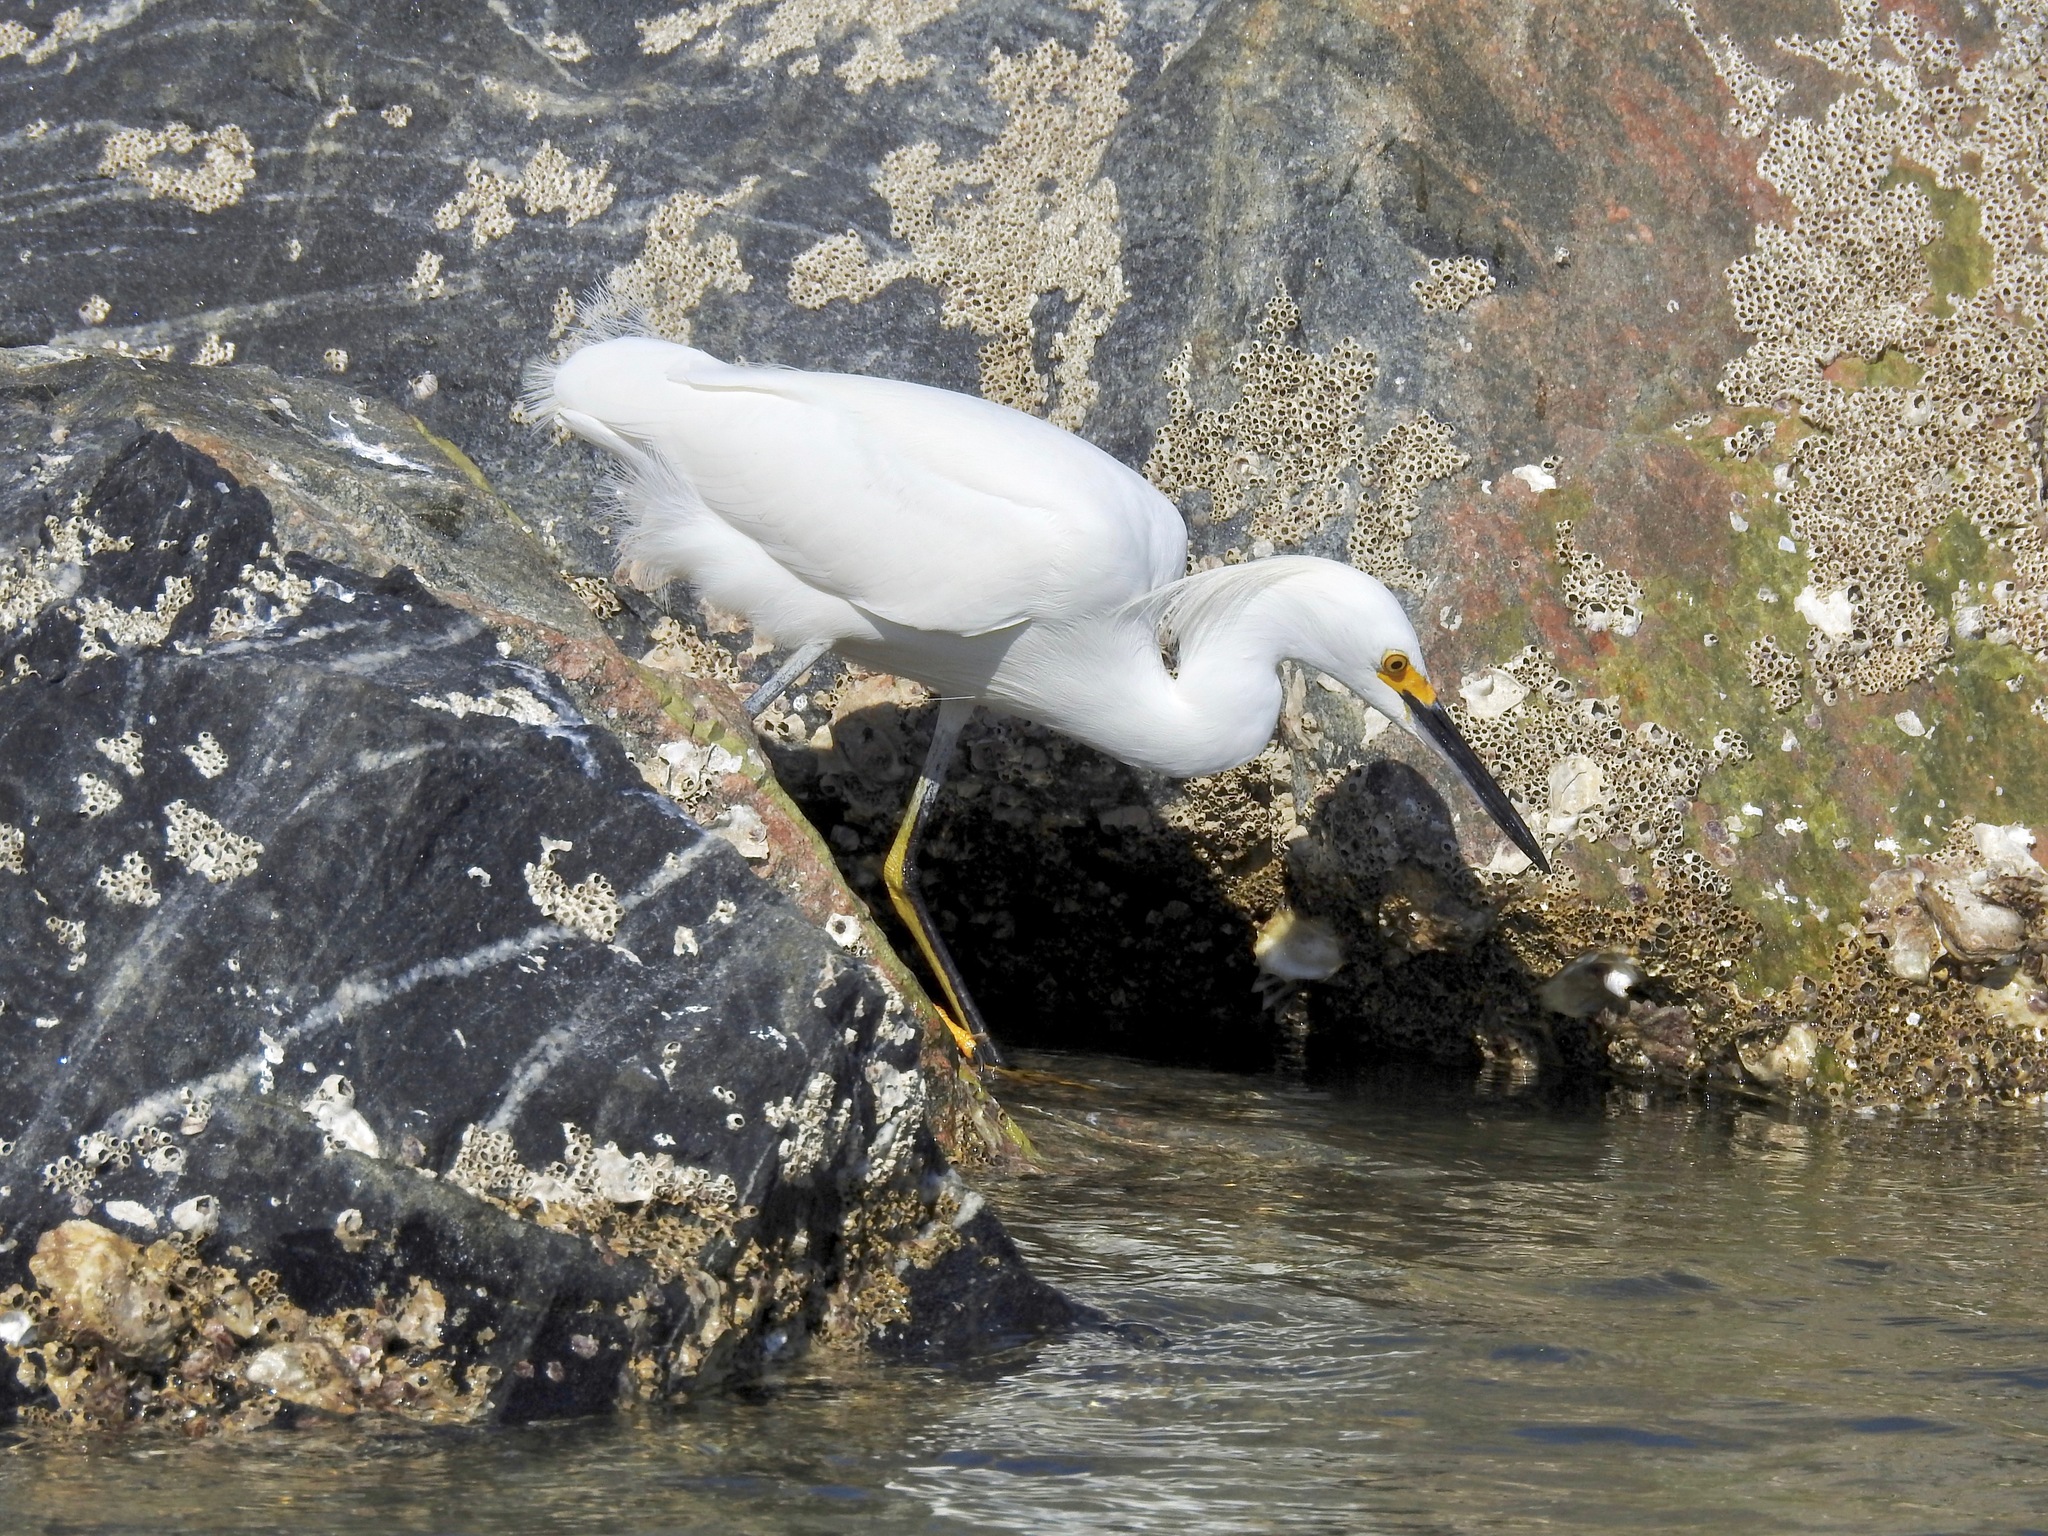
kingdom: Animalia
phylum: Chordata
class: Aves
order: Pelecaniformes
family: Ardeidae
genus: Egretta
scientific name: Egretta thula
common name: Snowy egret
